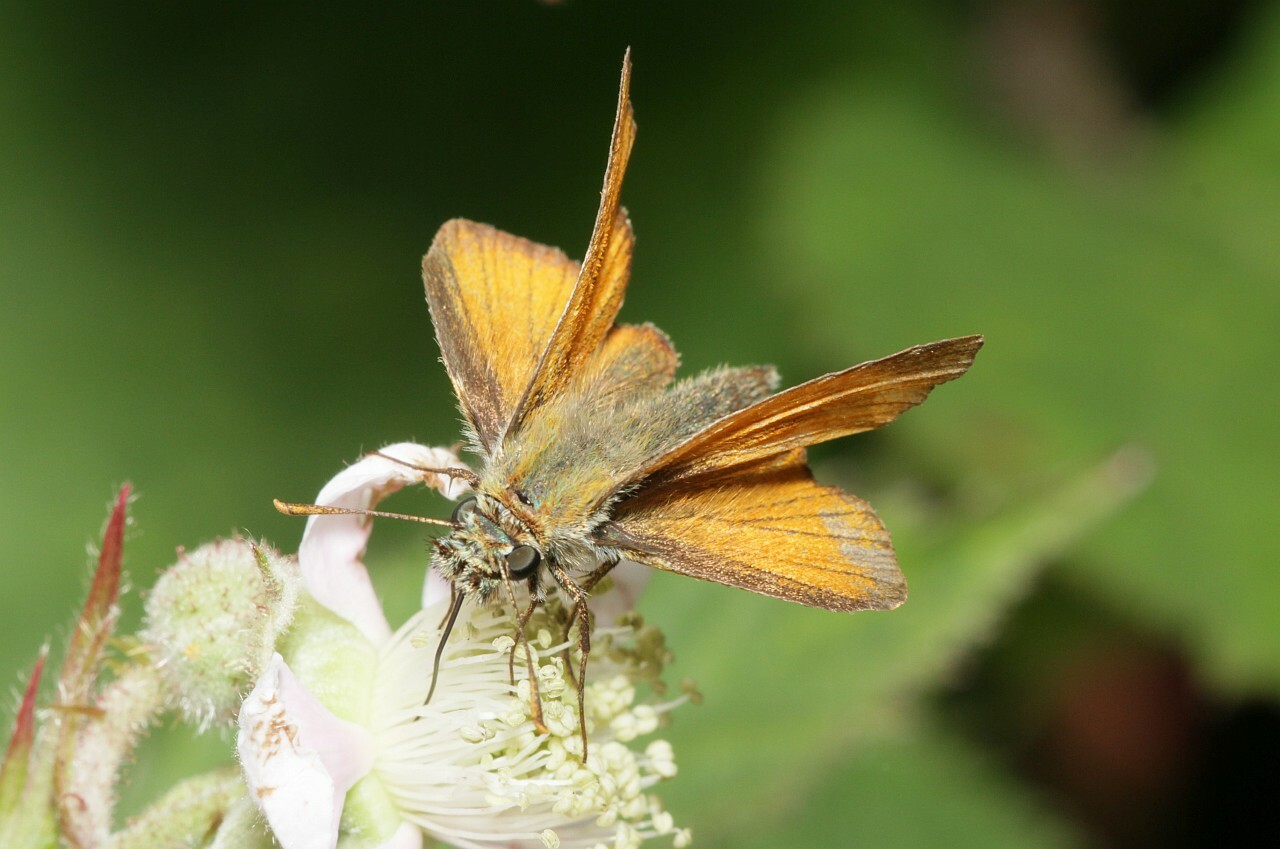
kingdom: Animalia
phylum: Arthropoda
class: Insecta
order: Lepidoptera
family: Hesperiidae
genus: Thymelicus
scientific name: Thymelicus sylvestris
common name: Small skipper
